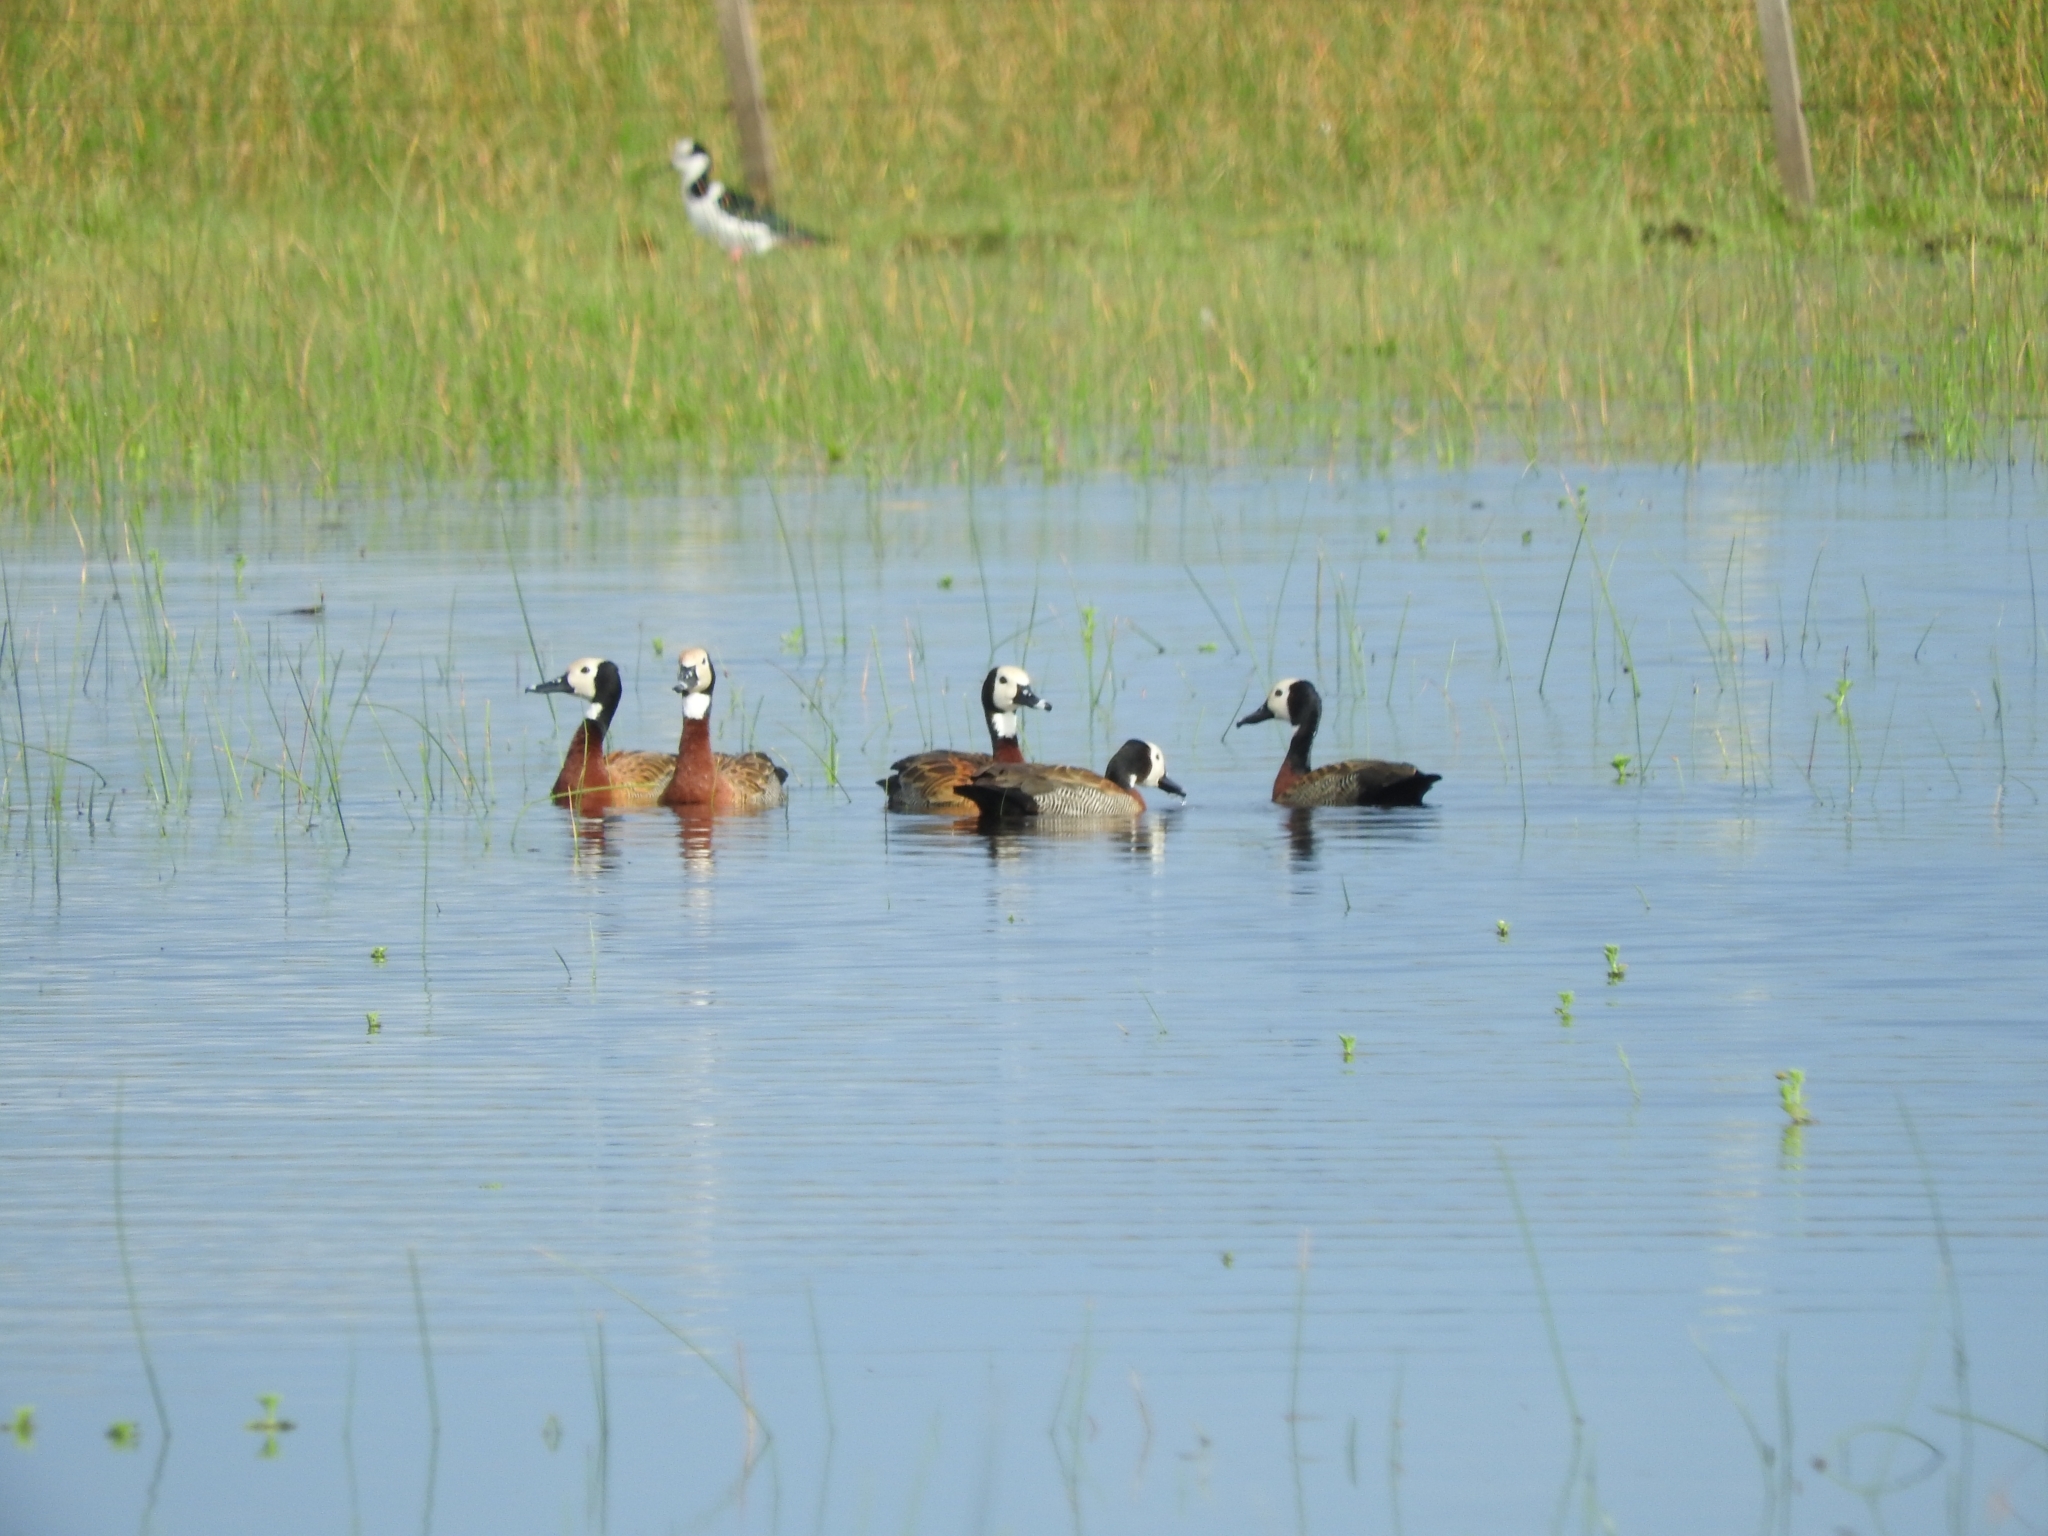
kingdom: Animalia
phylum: Chordata
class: Aves
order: Anseriformes
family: Anatidae
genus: Dendrocygna
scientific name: Dendrocygna viduata
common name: White-faced whistling duck
